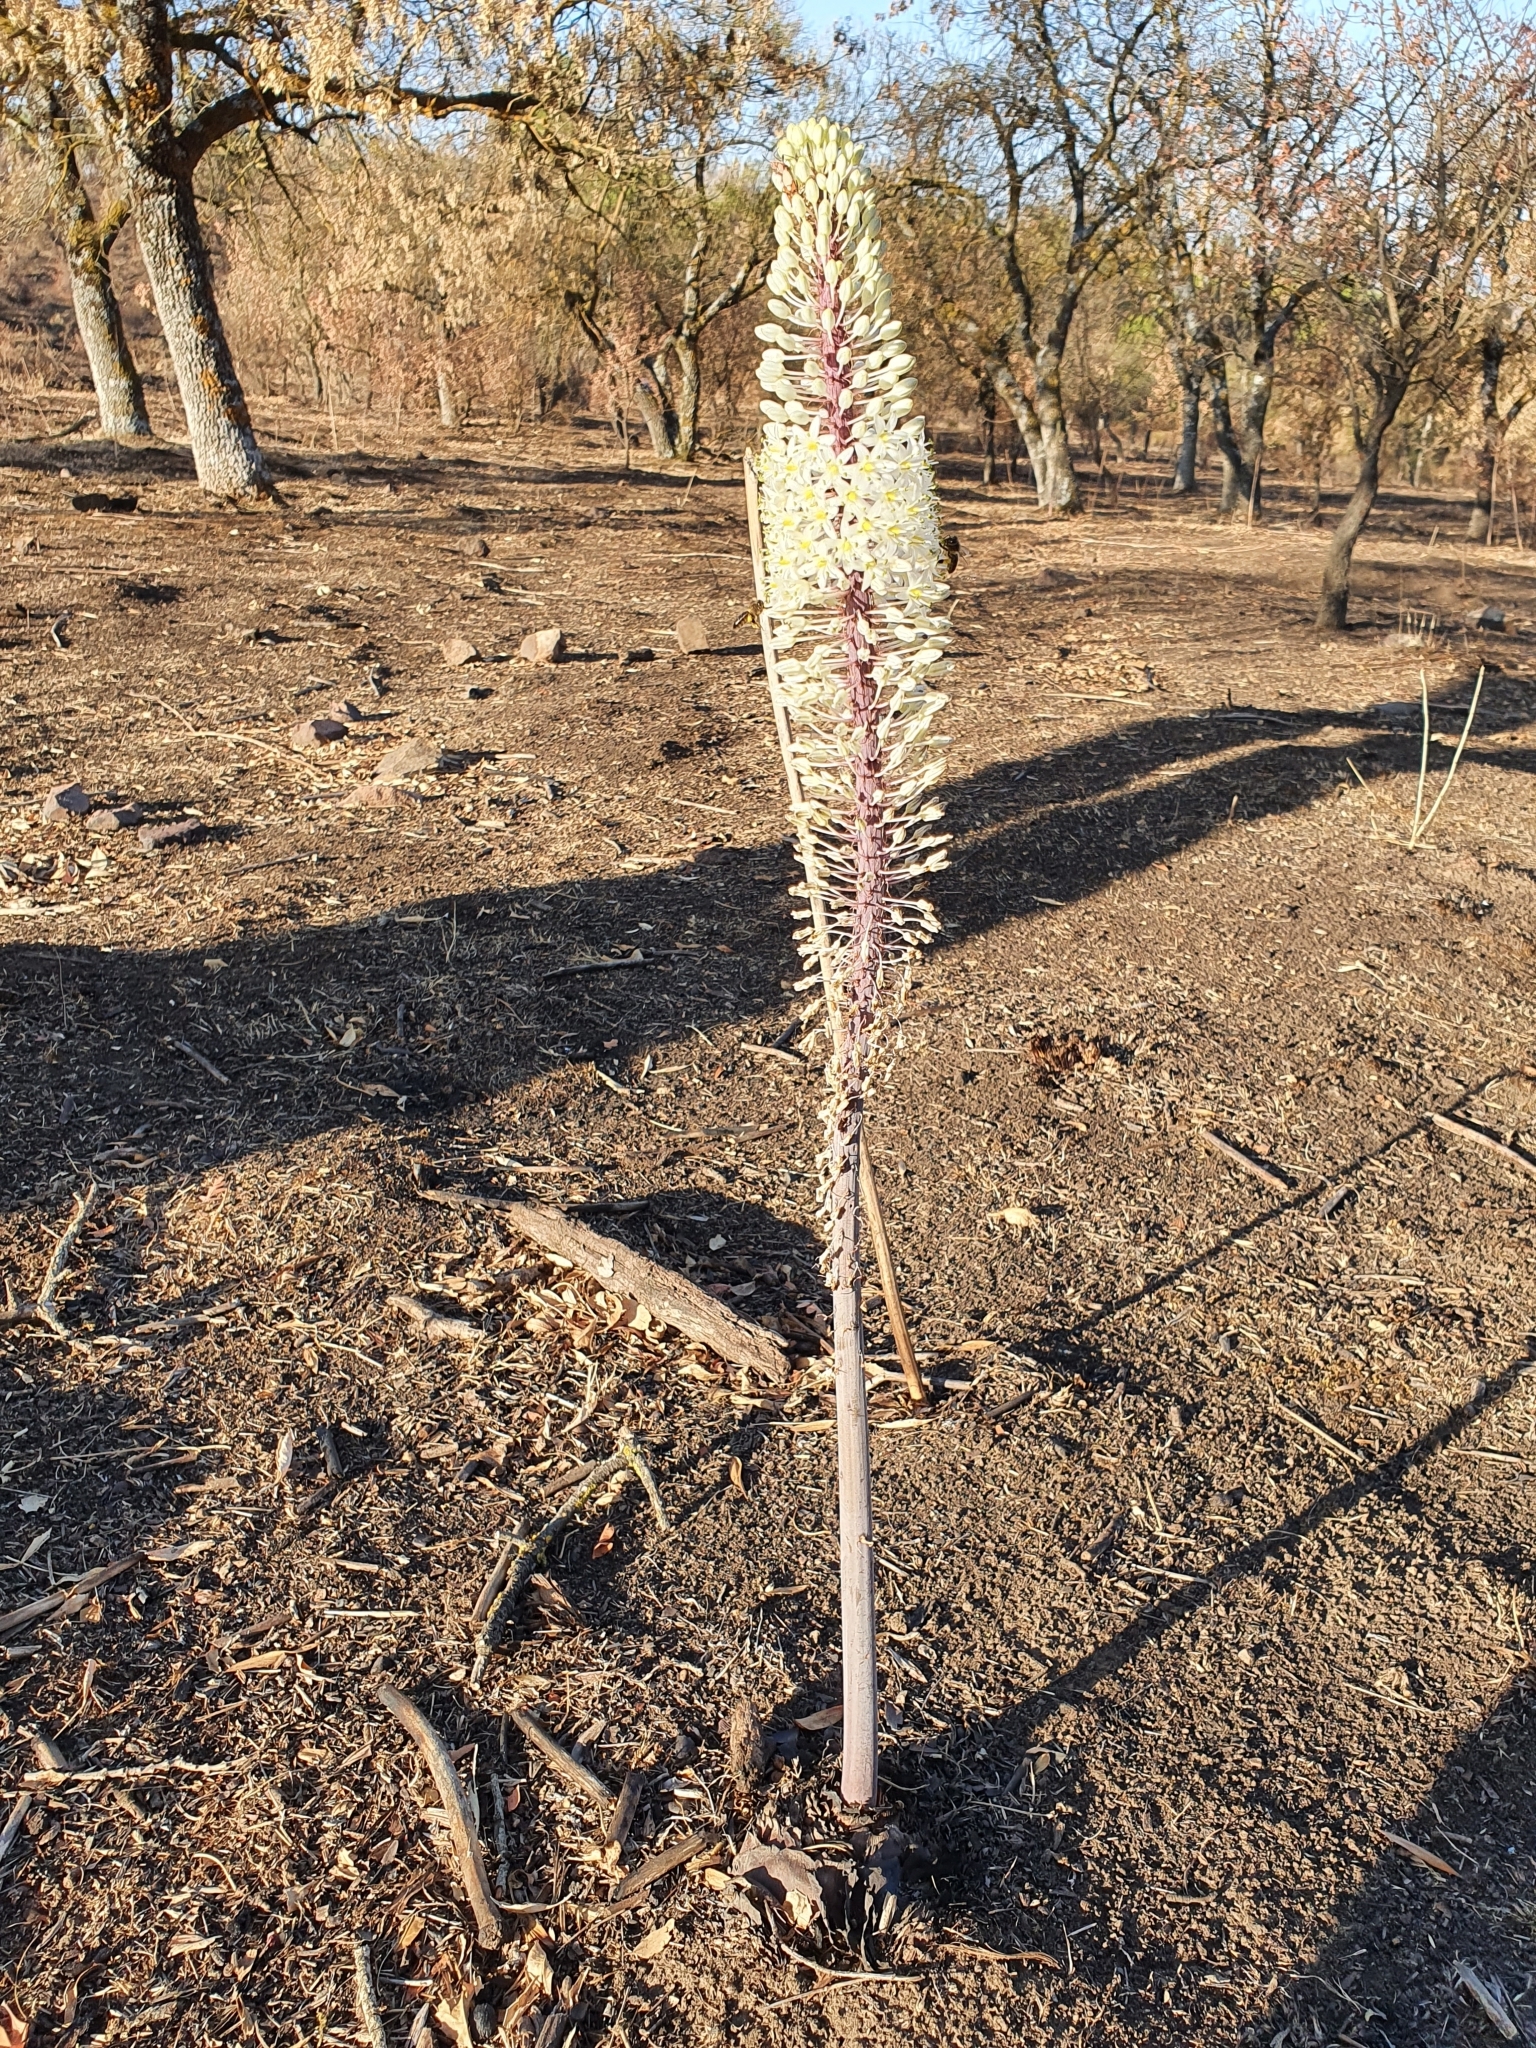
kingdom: Plantae
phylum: Tracheophyta
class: Liliopsida
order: Asparagales
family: Asparagaceae
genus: Drimia
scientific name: Drimia numidica
